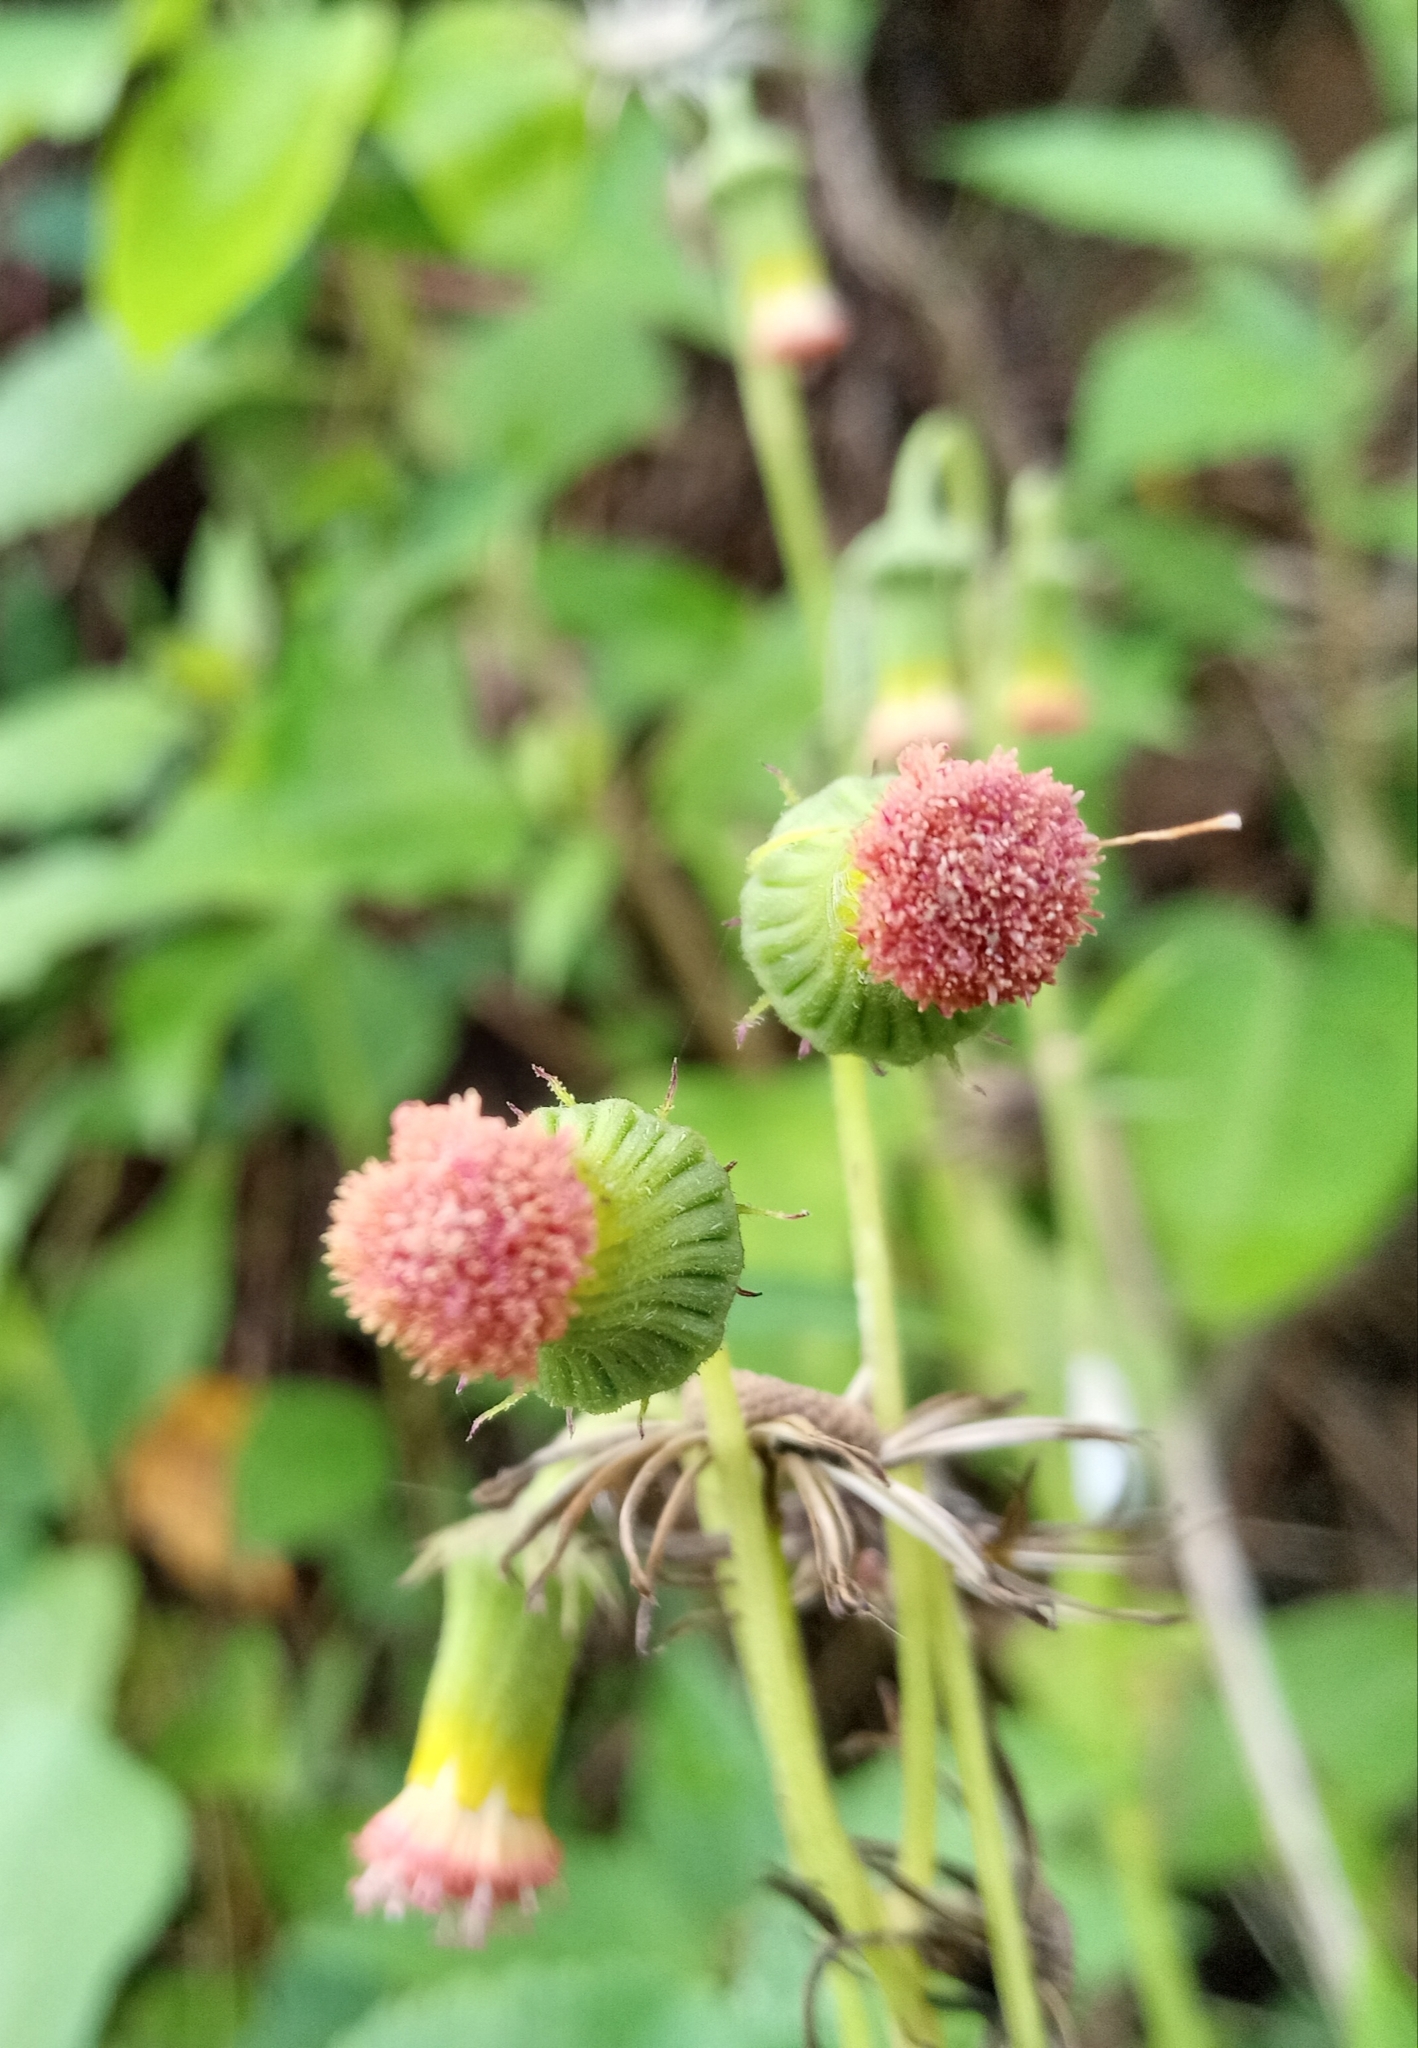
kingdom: Plantae
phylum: Tracheophyta
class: Magnoliopsida
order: Asterales
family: Asteraceae
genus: Crassocephalum
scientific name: Crassocephalum crepidioides
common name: Redflower ragleaf
